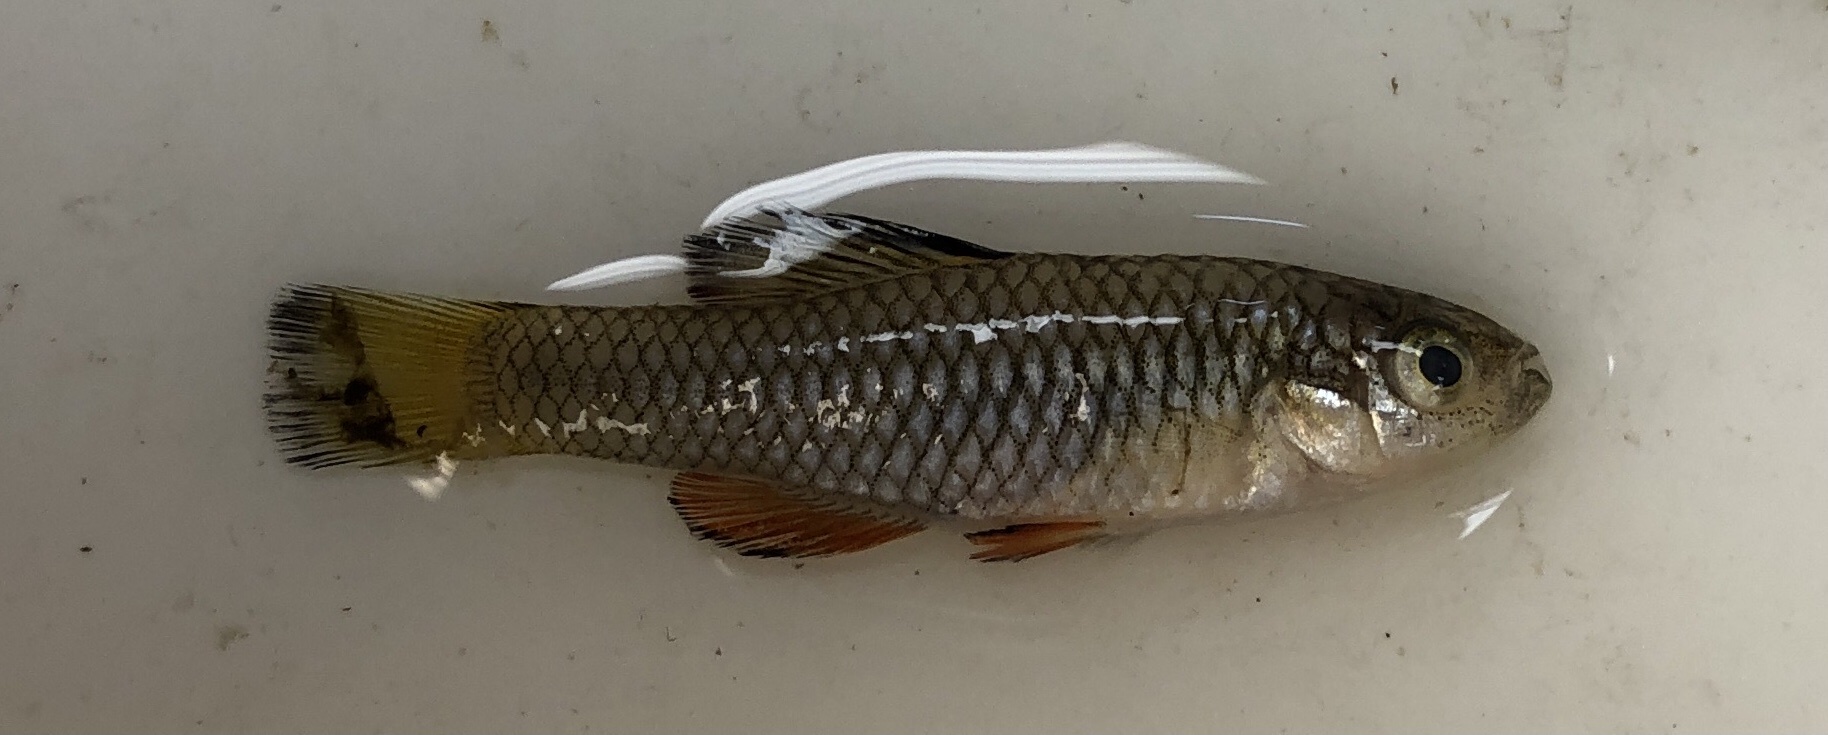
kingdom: Animalia
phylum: Chordata
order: Cyprinodontiformes
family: Fundulidae
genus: Lucania
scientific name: Lucania parva
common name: Rainwater killifish
